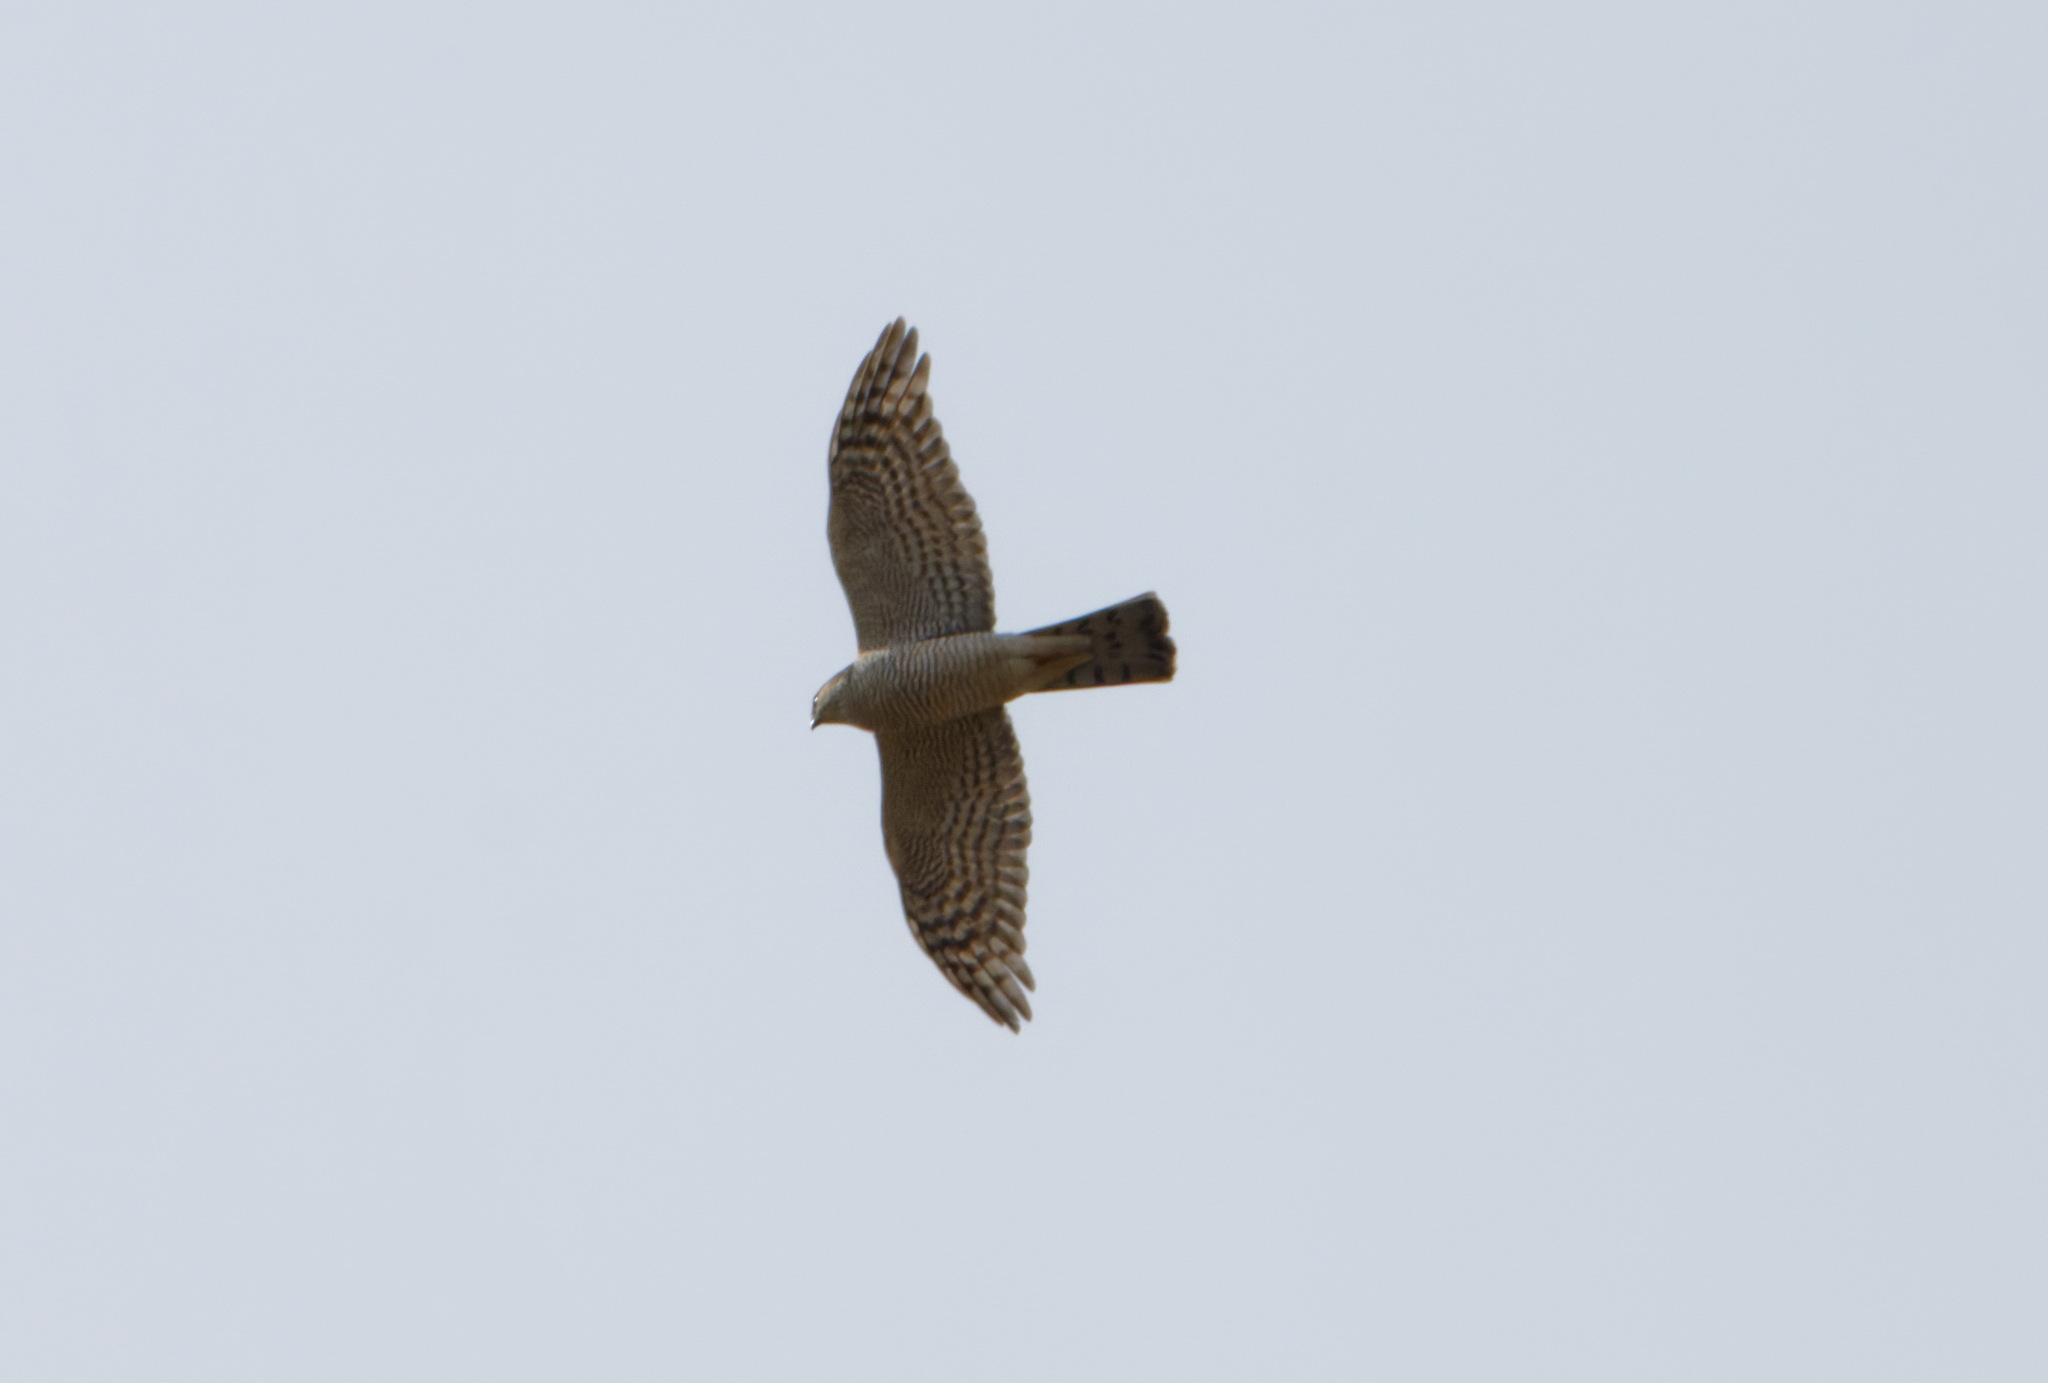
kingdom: Animalia
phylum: Chordata
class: Aves
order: Accipitriformes
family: Accipitridae
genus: Accipiter
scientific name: Accipiter nisus
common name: Eurasian sparrowhawk
